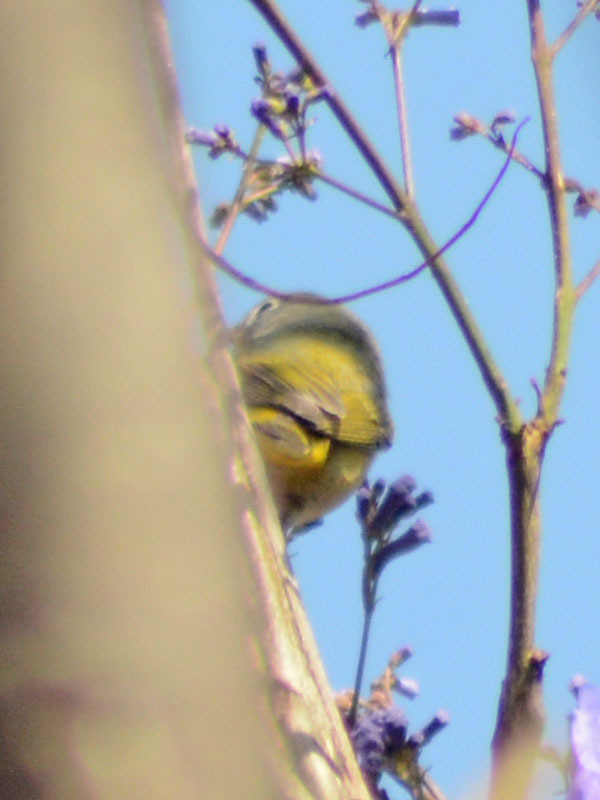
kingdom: Animalia
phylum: Chordata
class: Aves
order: Passeriformes
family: Parulidae
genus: Leiothlypis
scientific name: Leiothlypis ruficapilla
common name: Nashville warbler
